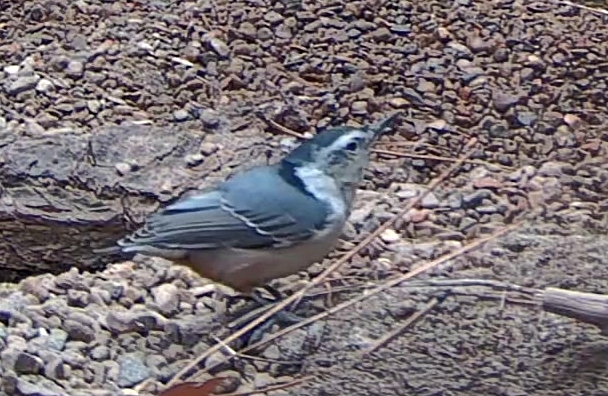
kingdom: Animalia
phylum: Chordata
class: Aves
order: Passeriformes
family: Sittidae
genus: Sitta
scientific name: Sitta carolinensis
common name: White-breasted nuthatch
